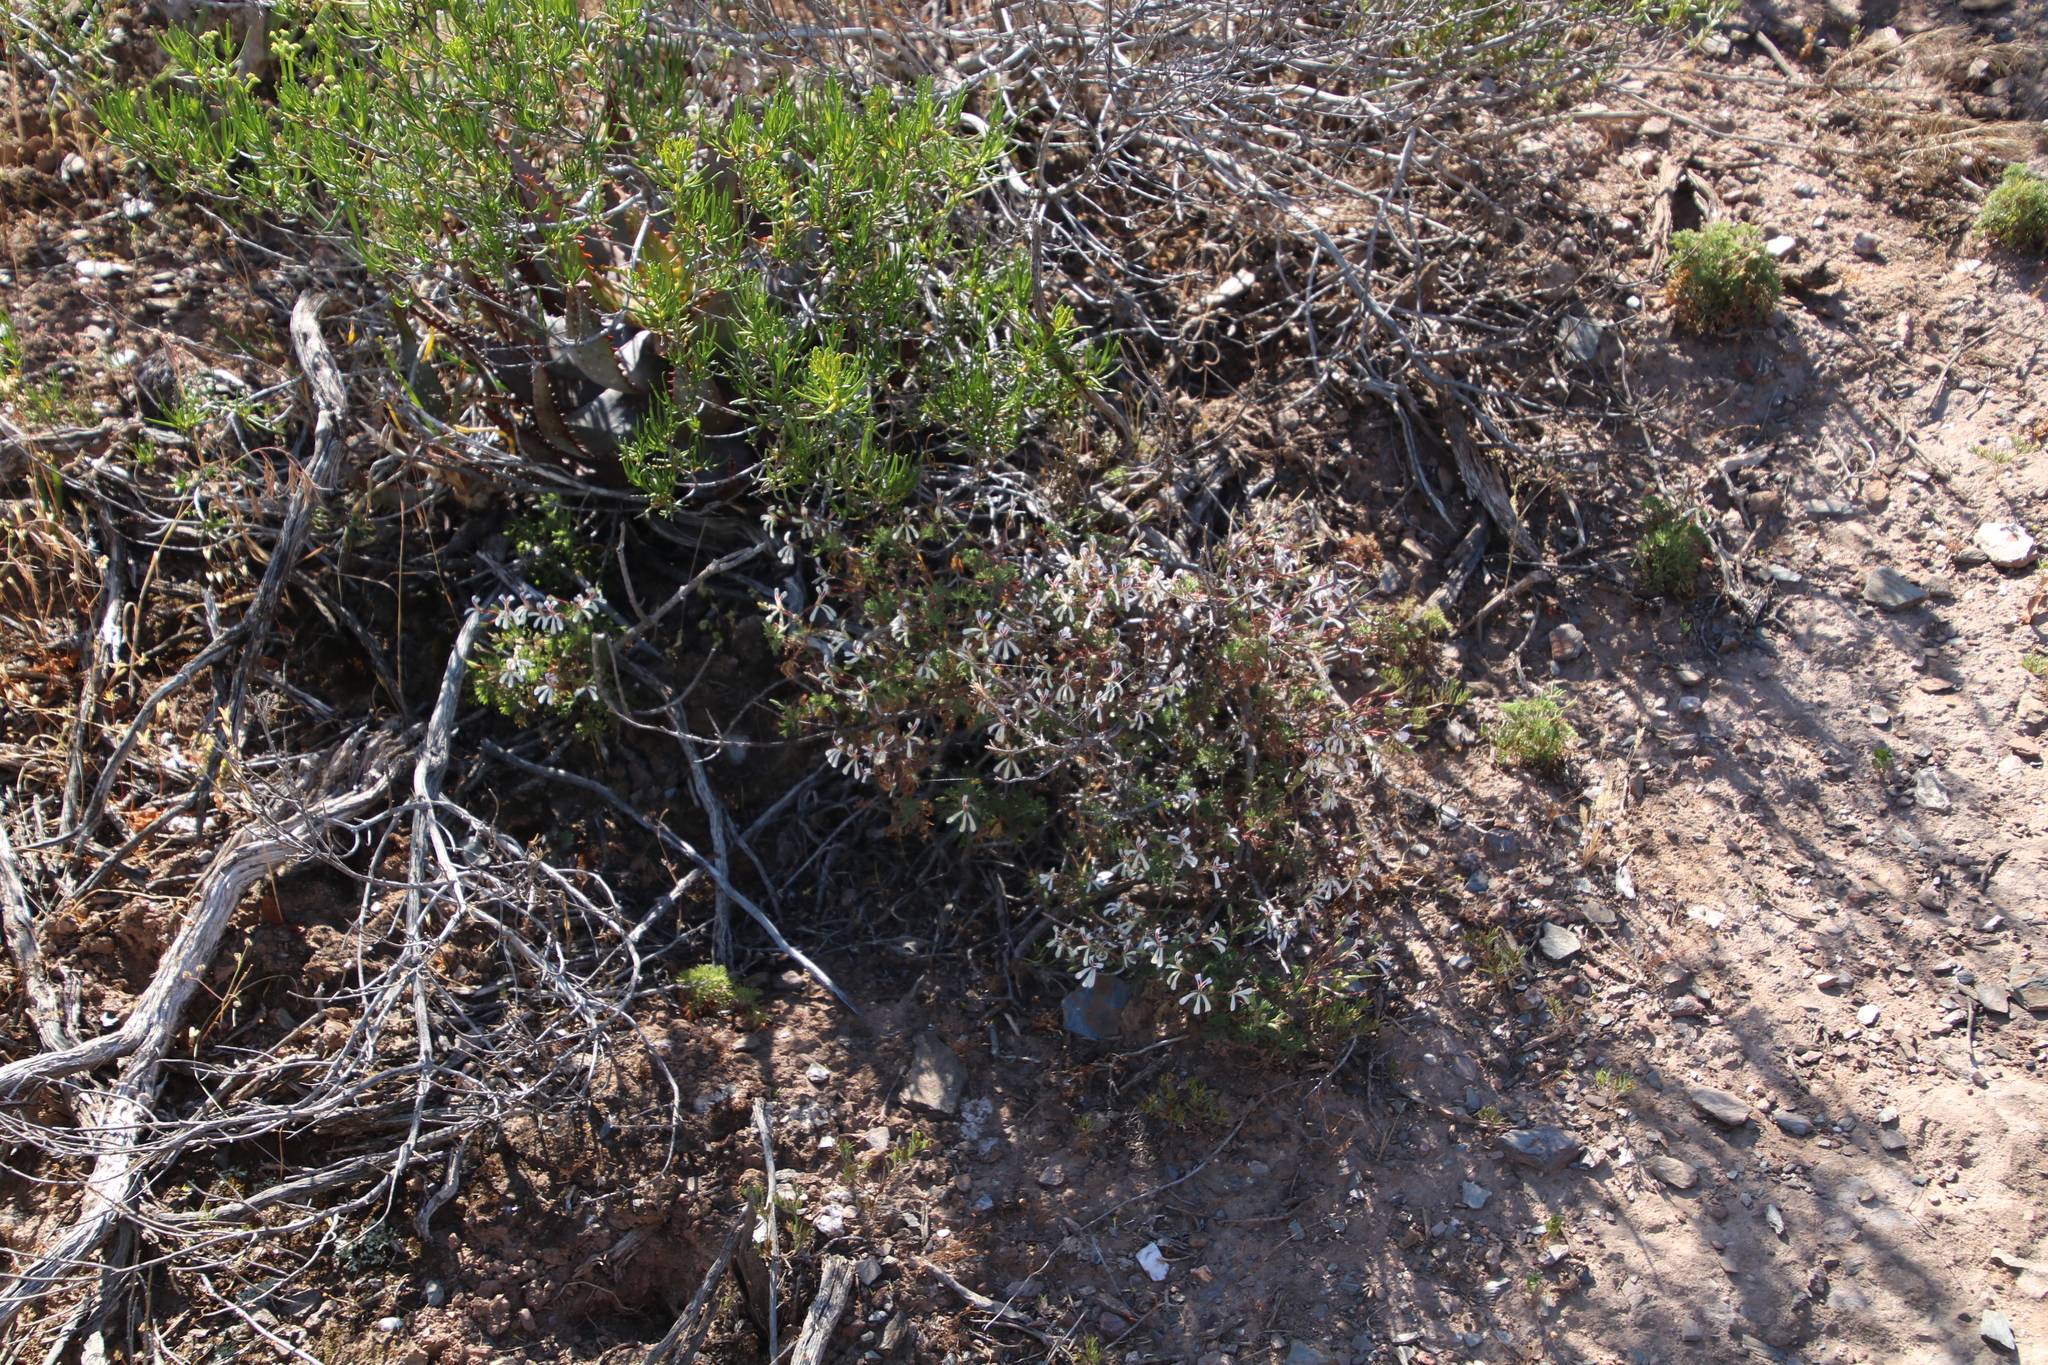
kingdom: Plantae
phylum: Tracheophyta
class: Magnoliopsida
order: Geraniales
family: Geraniaceae
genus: Pelargonium
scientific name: Pelargonium abrotanifolium
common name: Southernwood geranium
